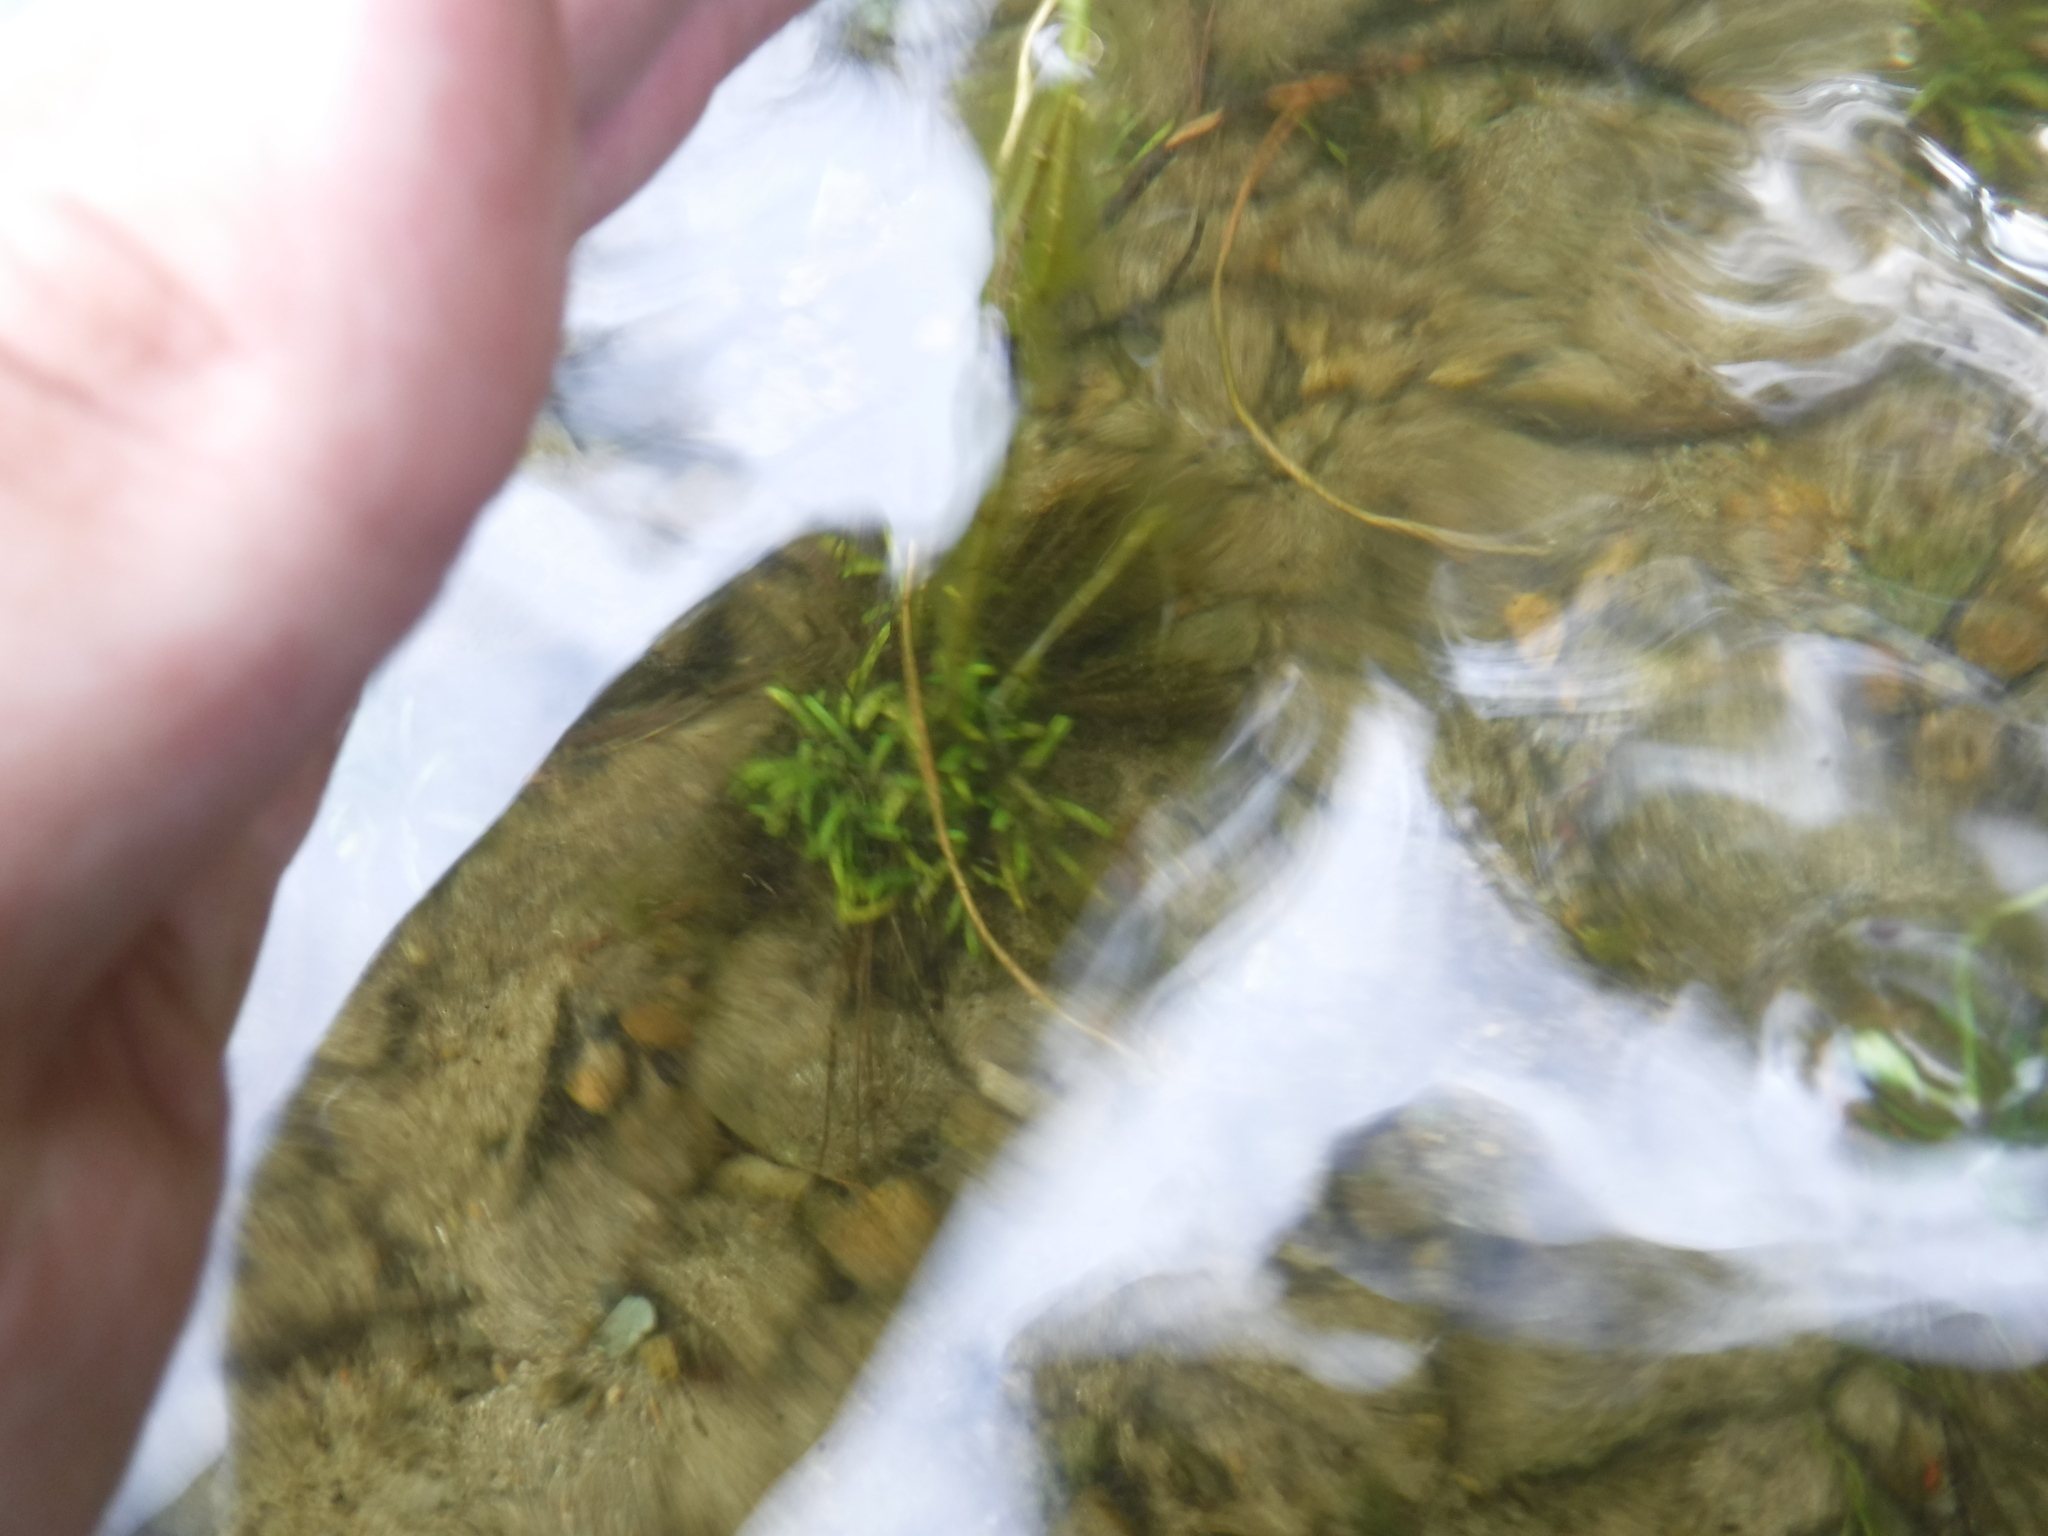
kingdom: Plantae
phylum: Tracheophyta
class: Magnoliopsida
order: Asterales
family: Campanulaceae
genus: Lobelia
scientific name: Lobelia dortmanna
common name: Water lobelia
